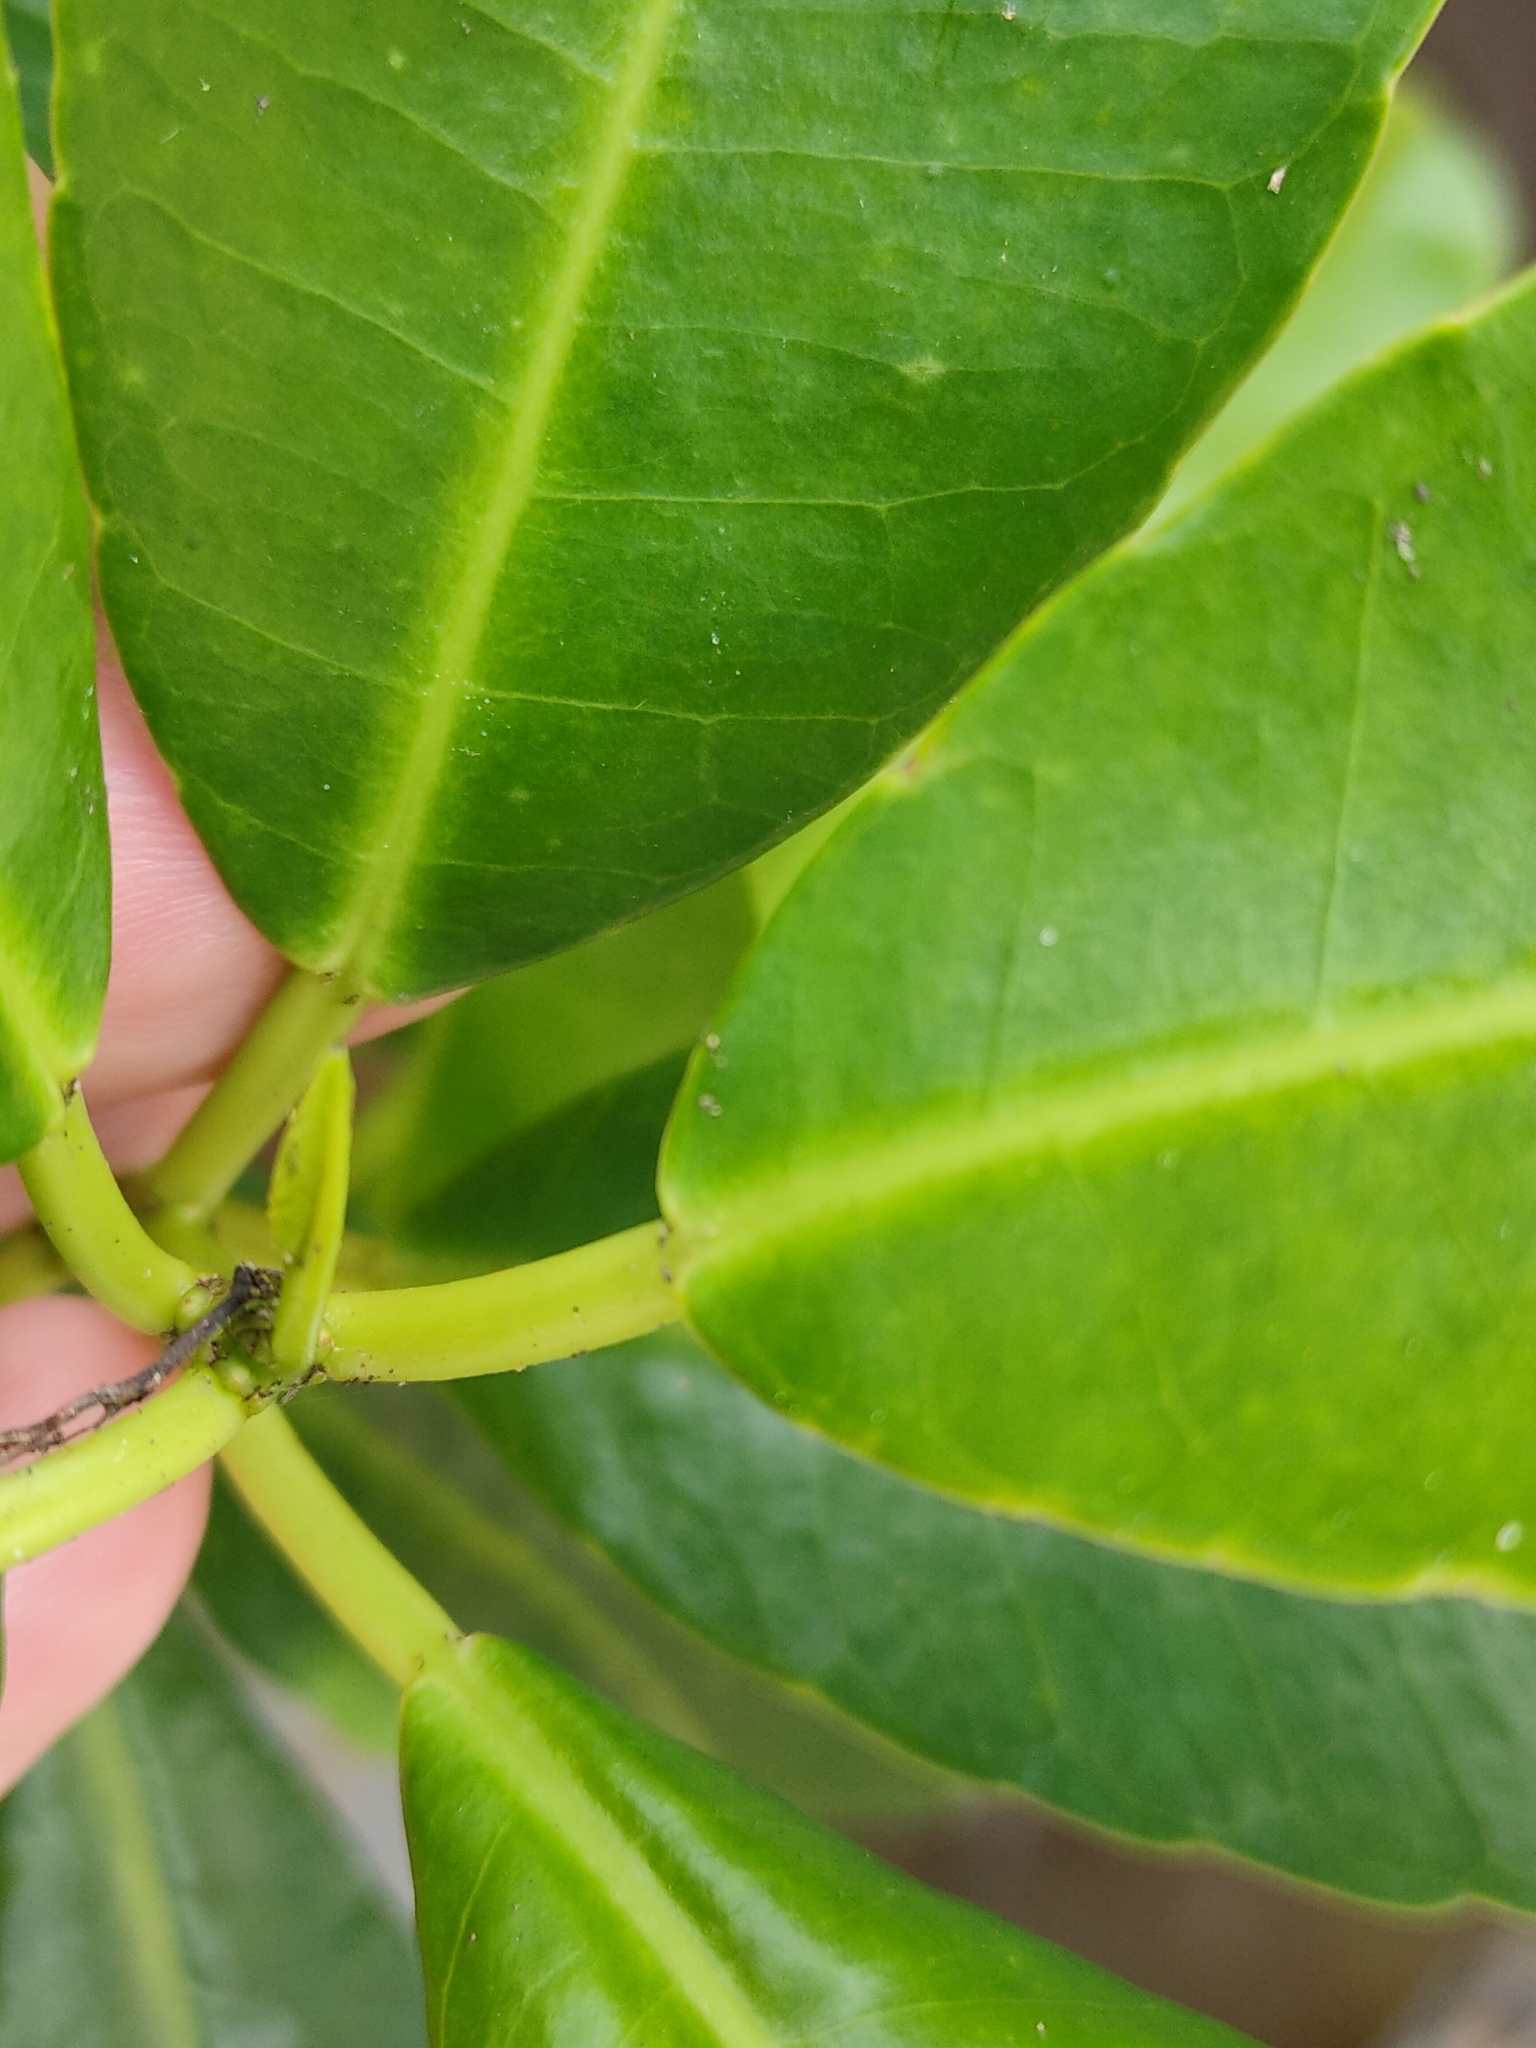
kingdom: Plantae
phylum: Tracheophyta
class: Magnoliopsida
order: Malpighiales
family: Euphorbiaceae
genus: Excoecaria
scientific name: Excoecaria agallocha
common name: River poisontree
